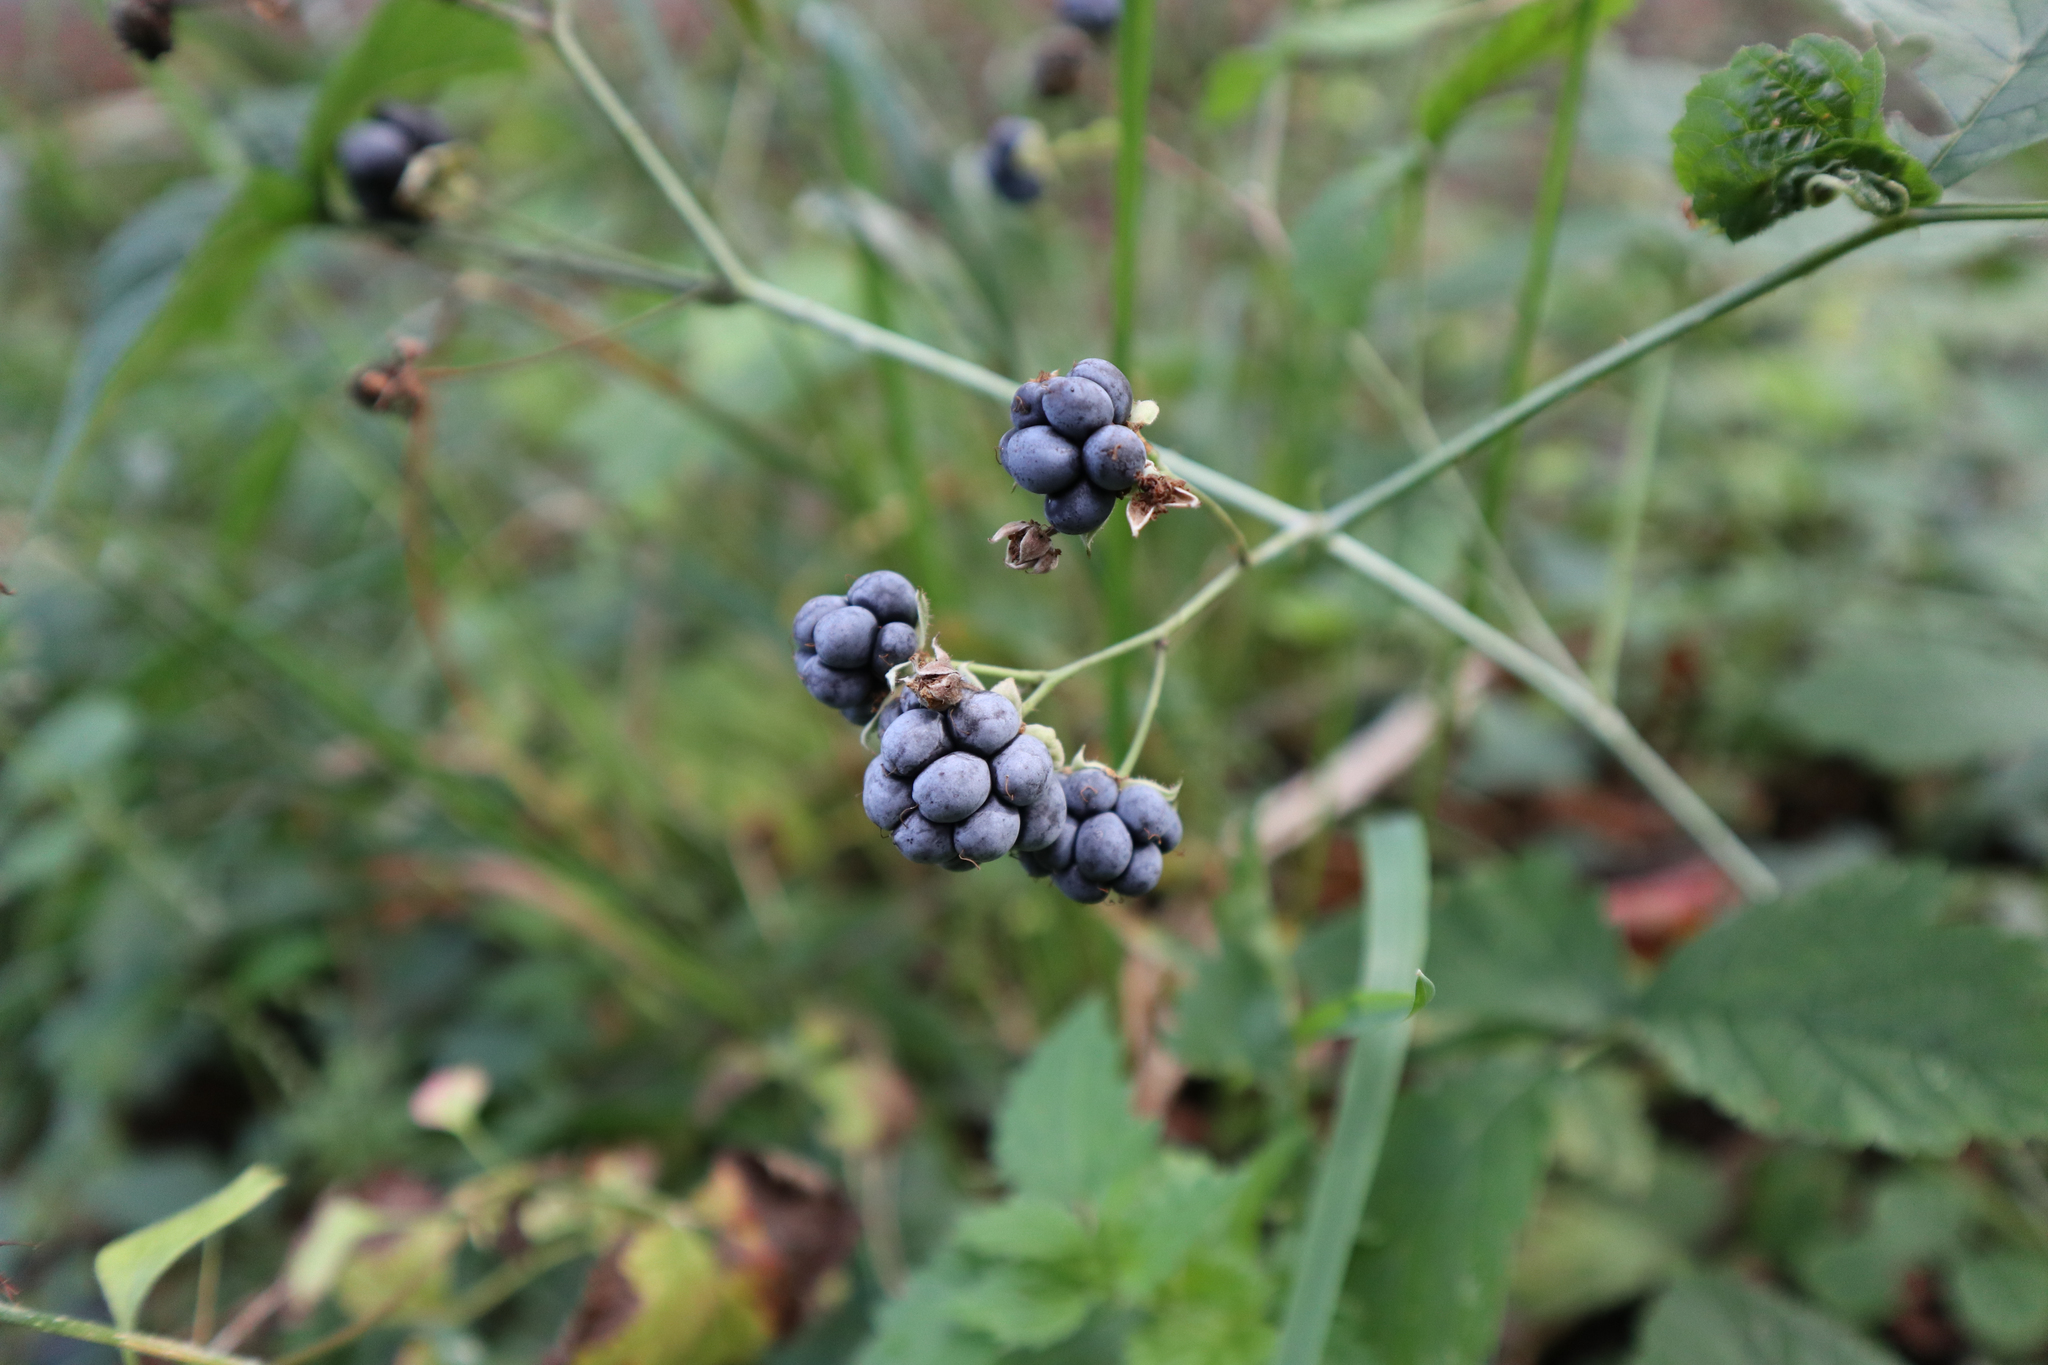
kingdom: Plantae
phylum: Tracheophyta
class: Magnoliopsida
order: Rosales
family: Rosaceae
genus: Rubus
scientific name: Rubus caesius
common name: Dewberry
